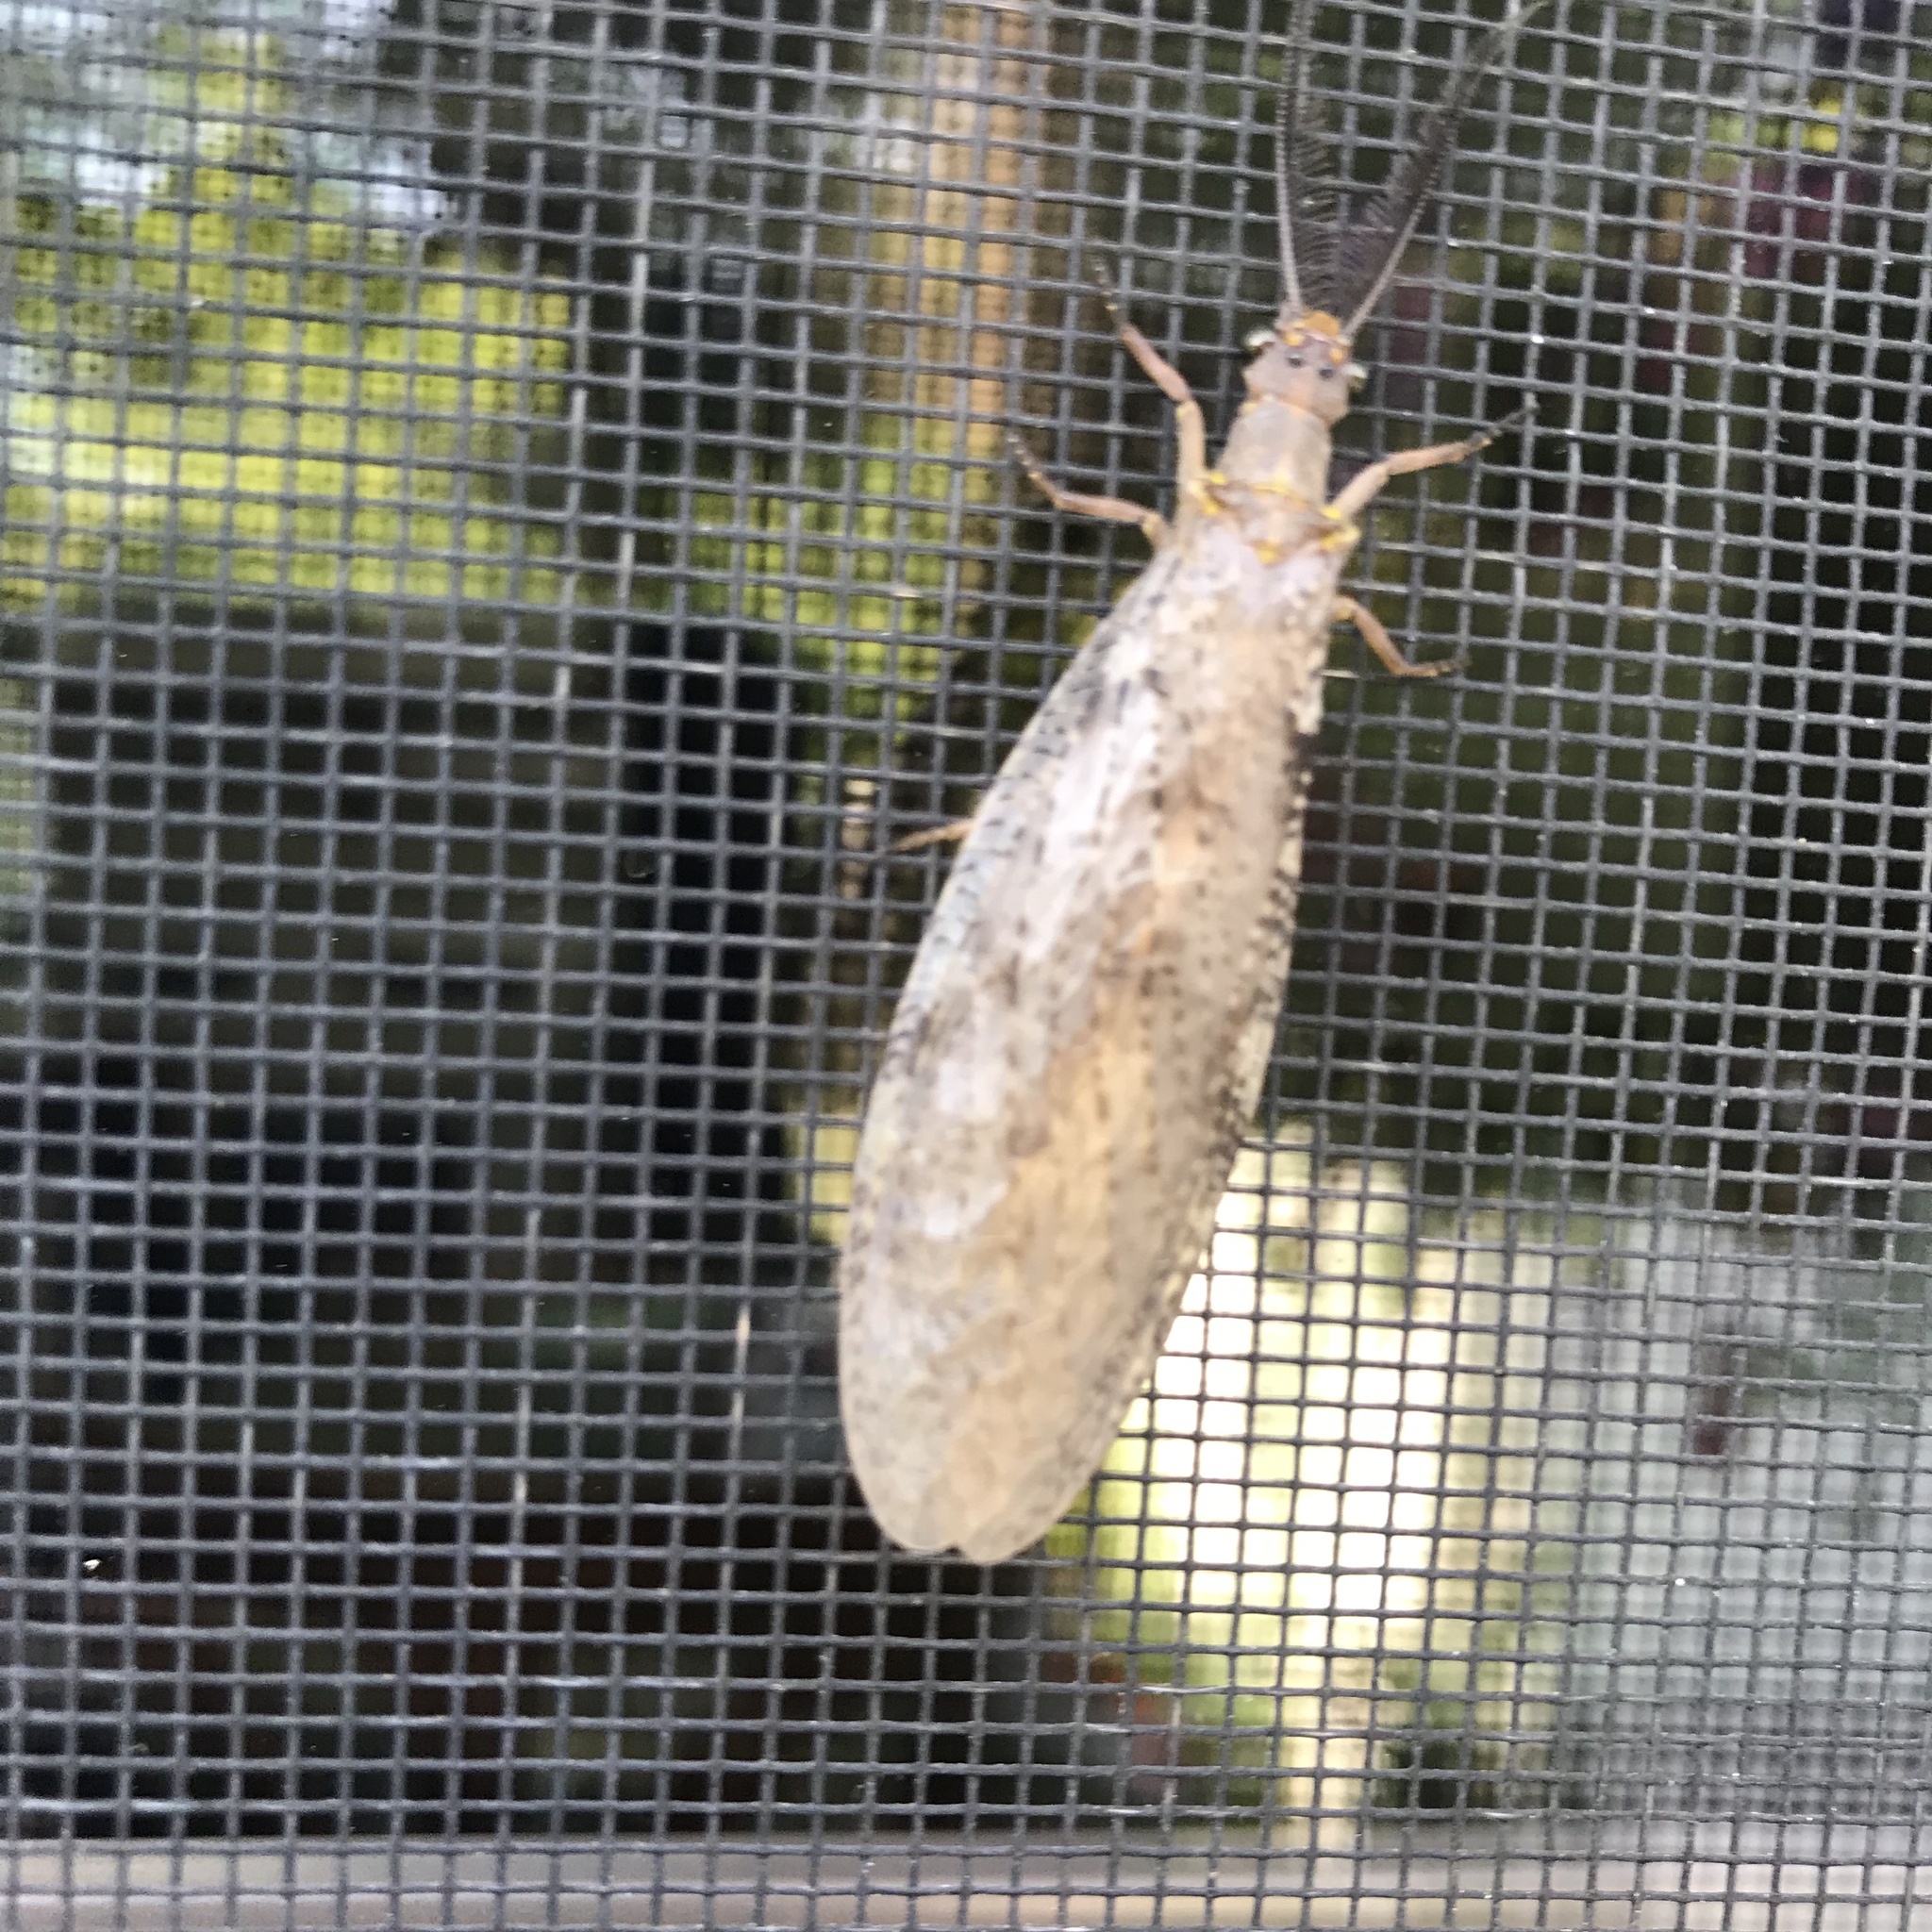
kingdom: Animalia
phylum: Arthropoda
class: Insecta
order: Megaloptera
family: Corydalidae
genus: Chauliodes
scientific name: Chauliodes pectinicornis
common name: Summer fishfly
